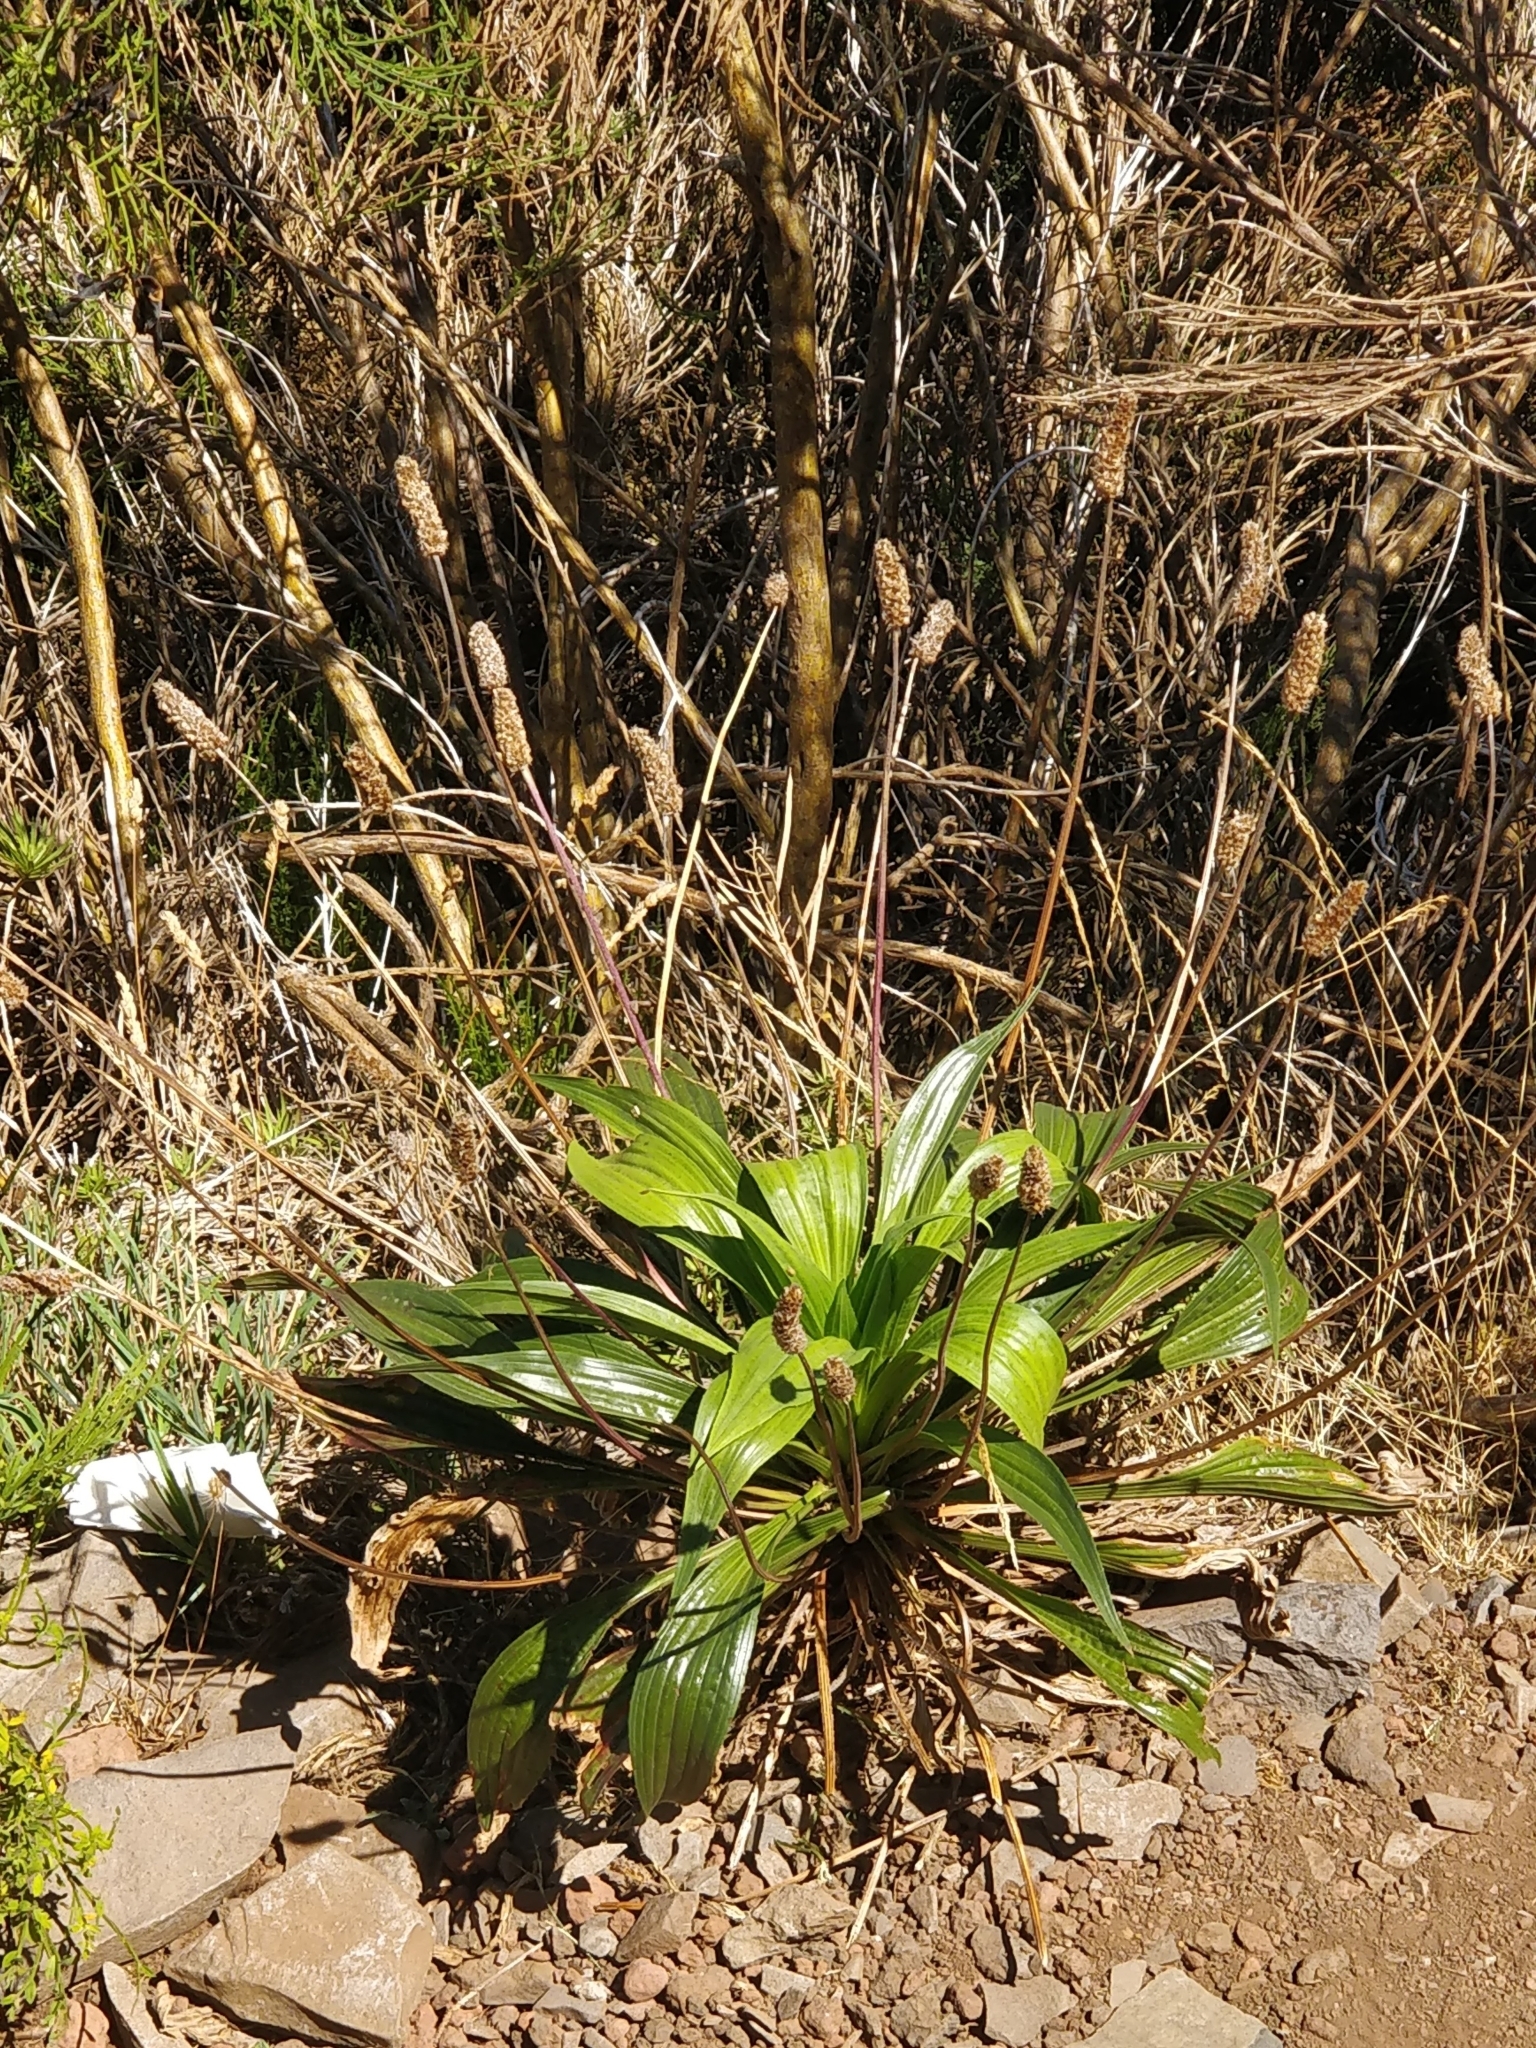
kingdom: Plantae
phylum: Tracheophyta
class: Magnoliopsida
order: Lamiales
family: Plantaginaceae
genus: Plantago
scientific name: Plantago malato-belizii
